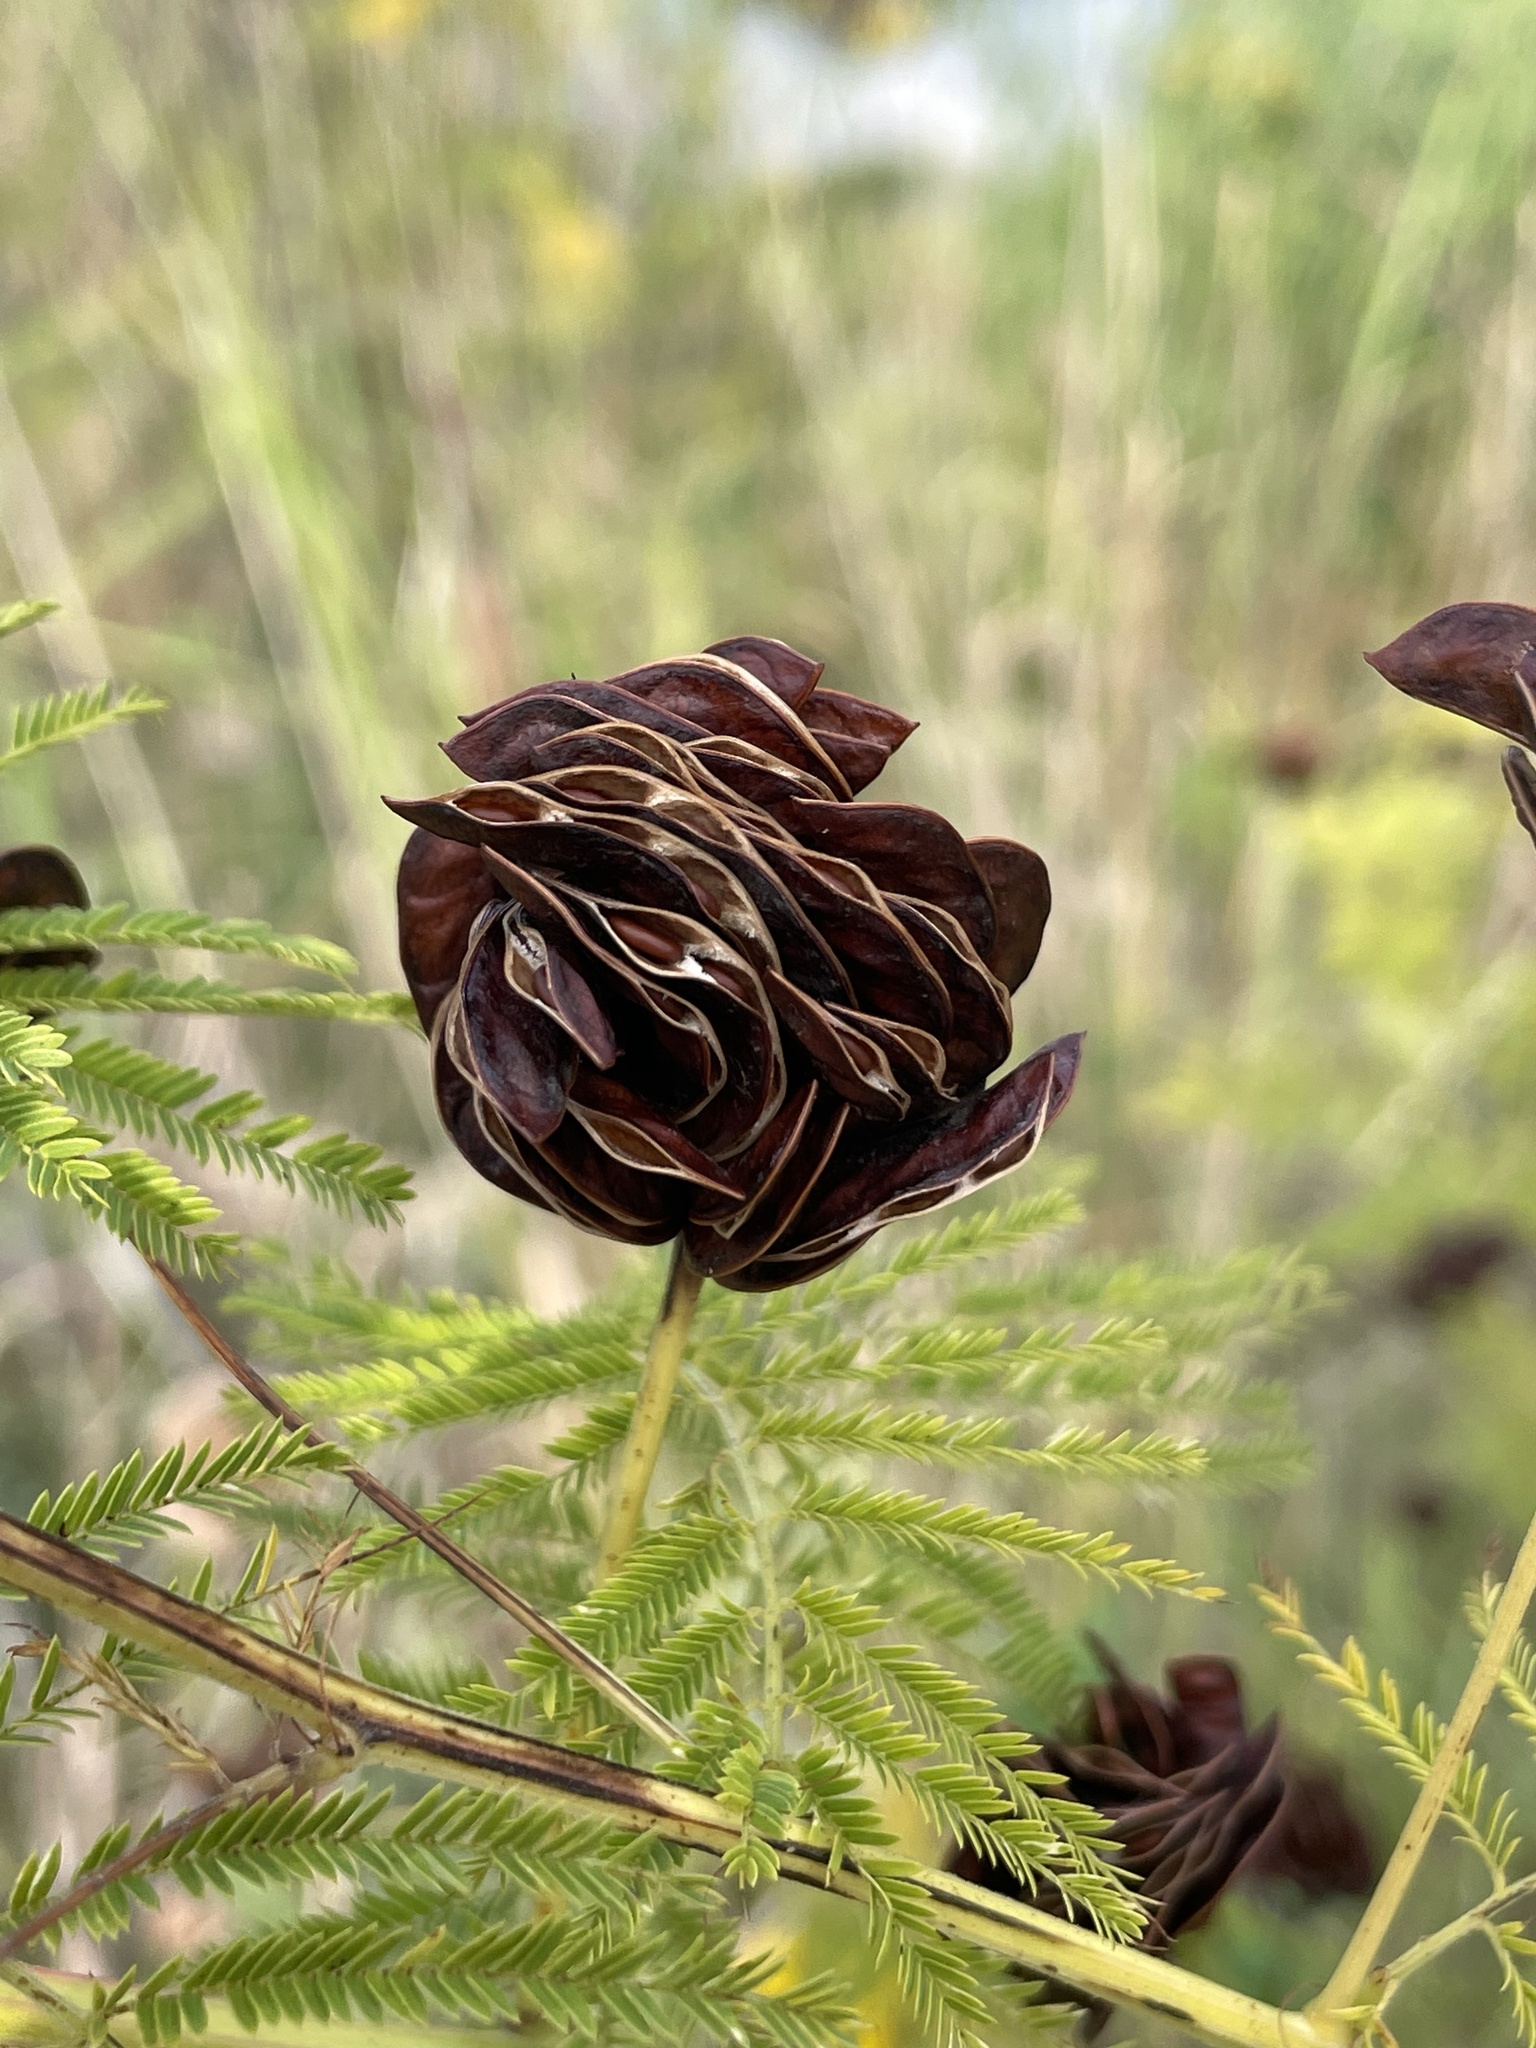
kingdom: Plantae
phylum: Tracheophyta
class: Magnoliopsida
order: Fabales
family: Fabaceae
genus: Desmanthus
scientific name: Desmanthus illinoensis
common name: Illinois bundle-flower
